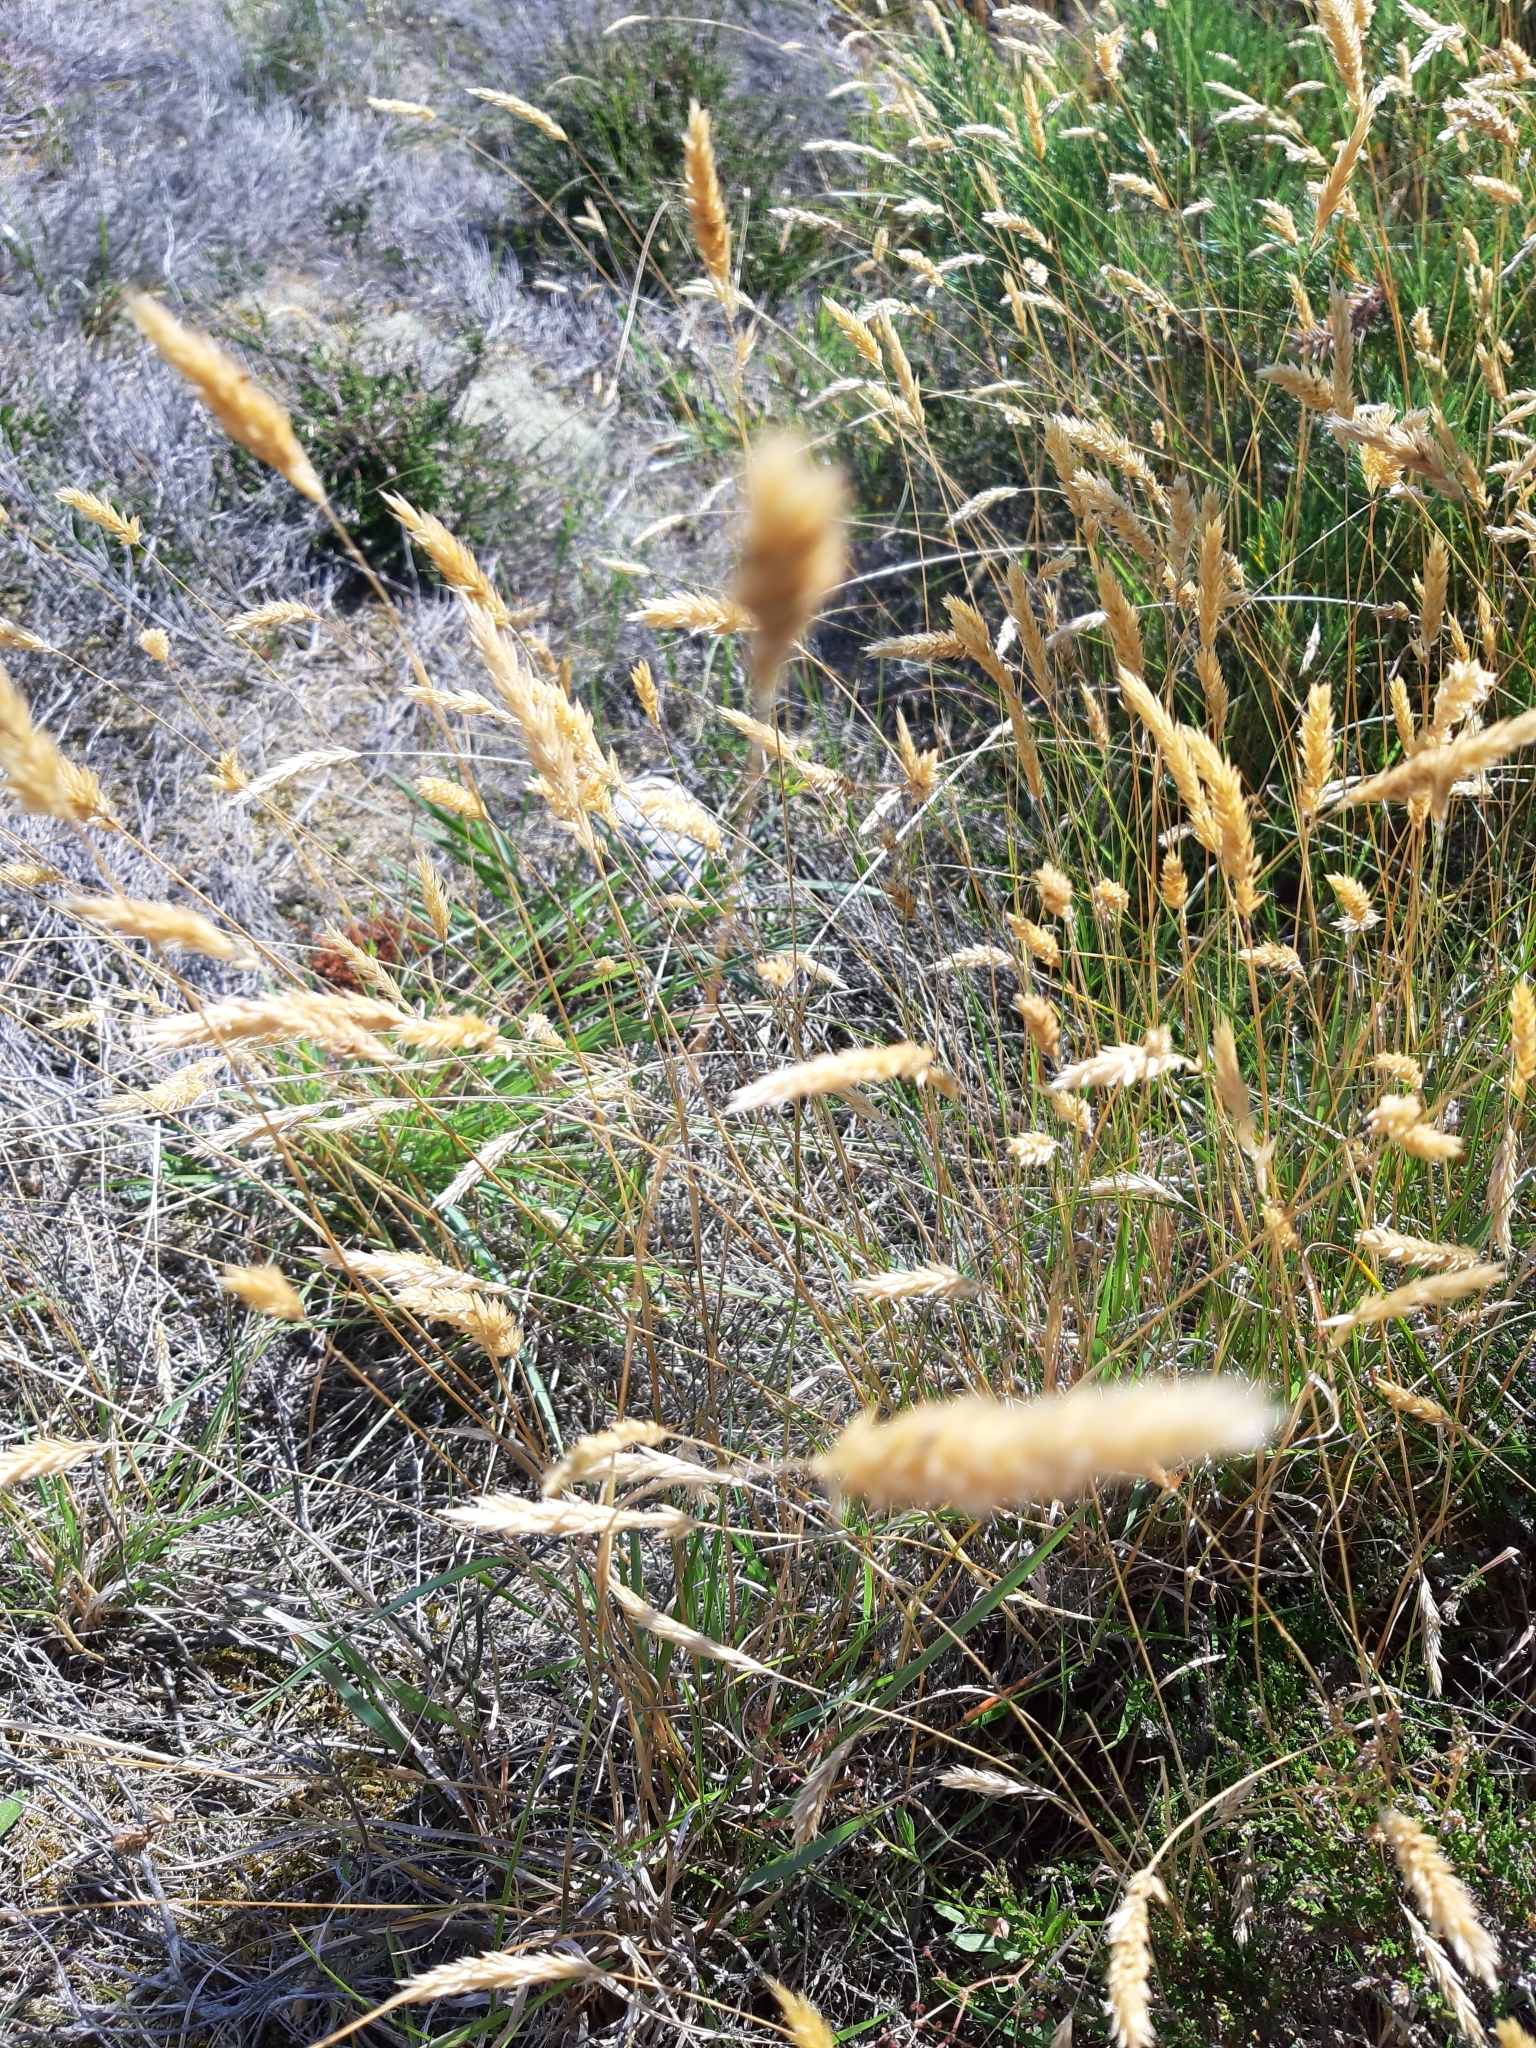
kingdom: Plantae
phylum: Tracheophyta
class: Liliopsida
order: Poales
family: Poaceae
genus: Anthoxanthum
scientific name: Anthoxanthum odoratum
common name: Sweet vernalgrass
